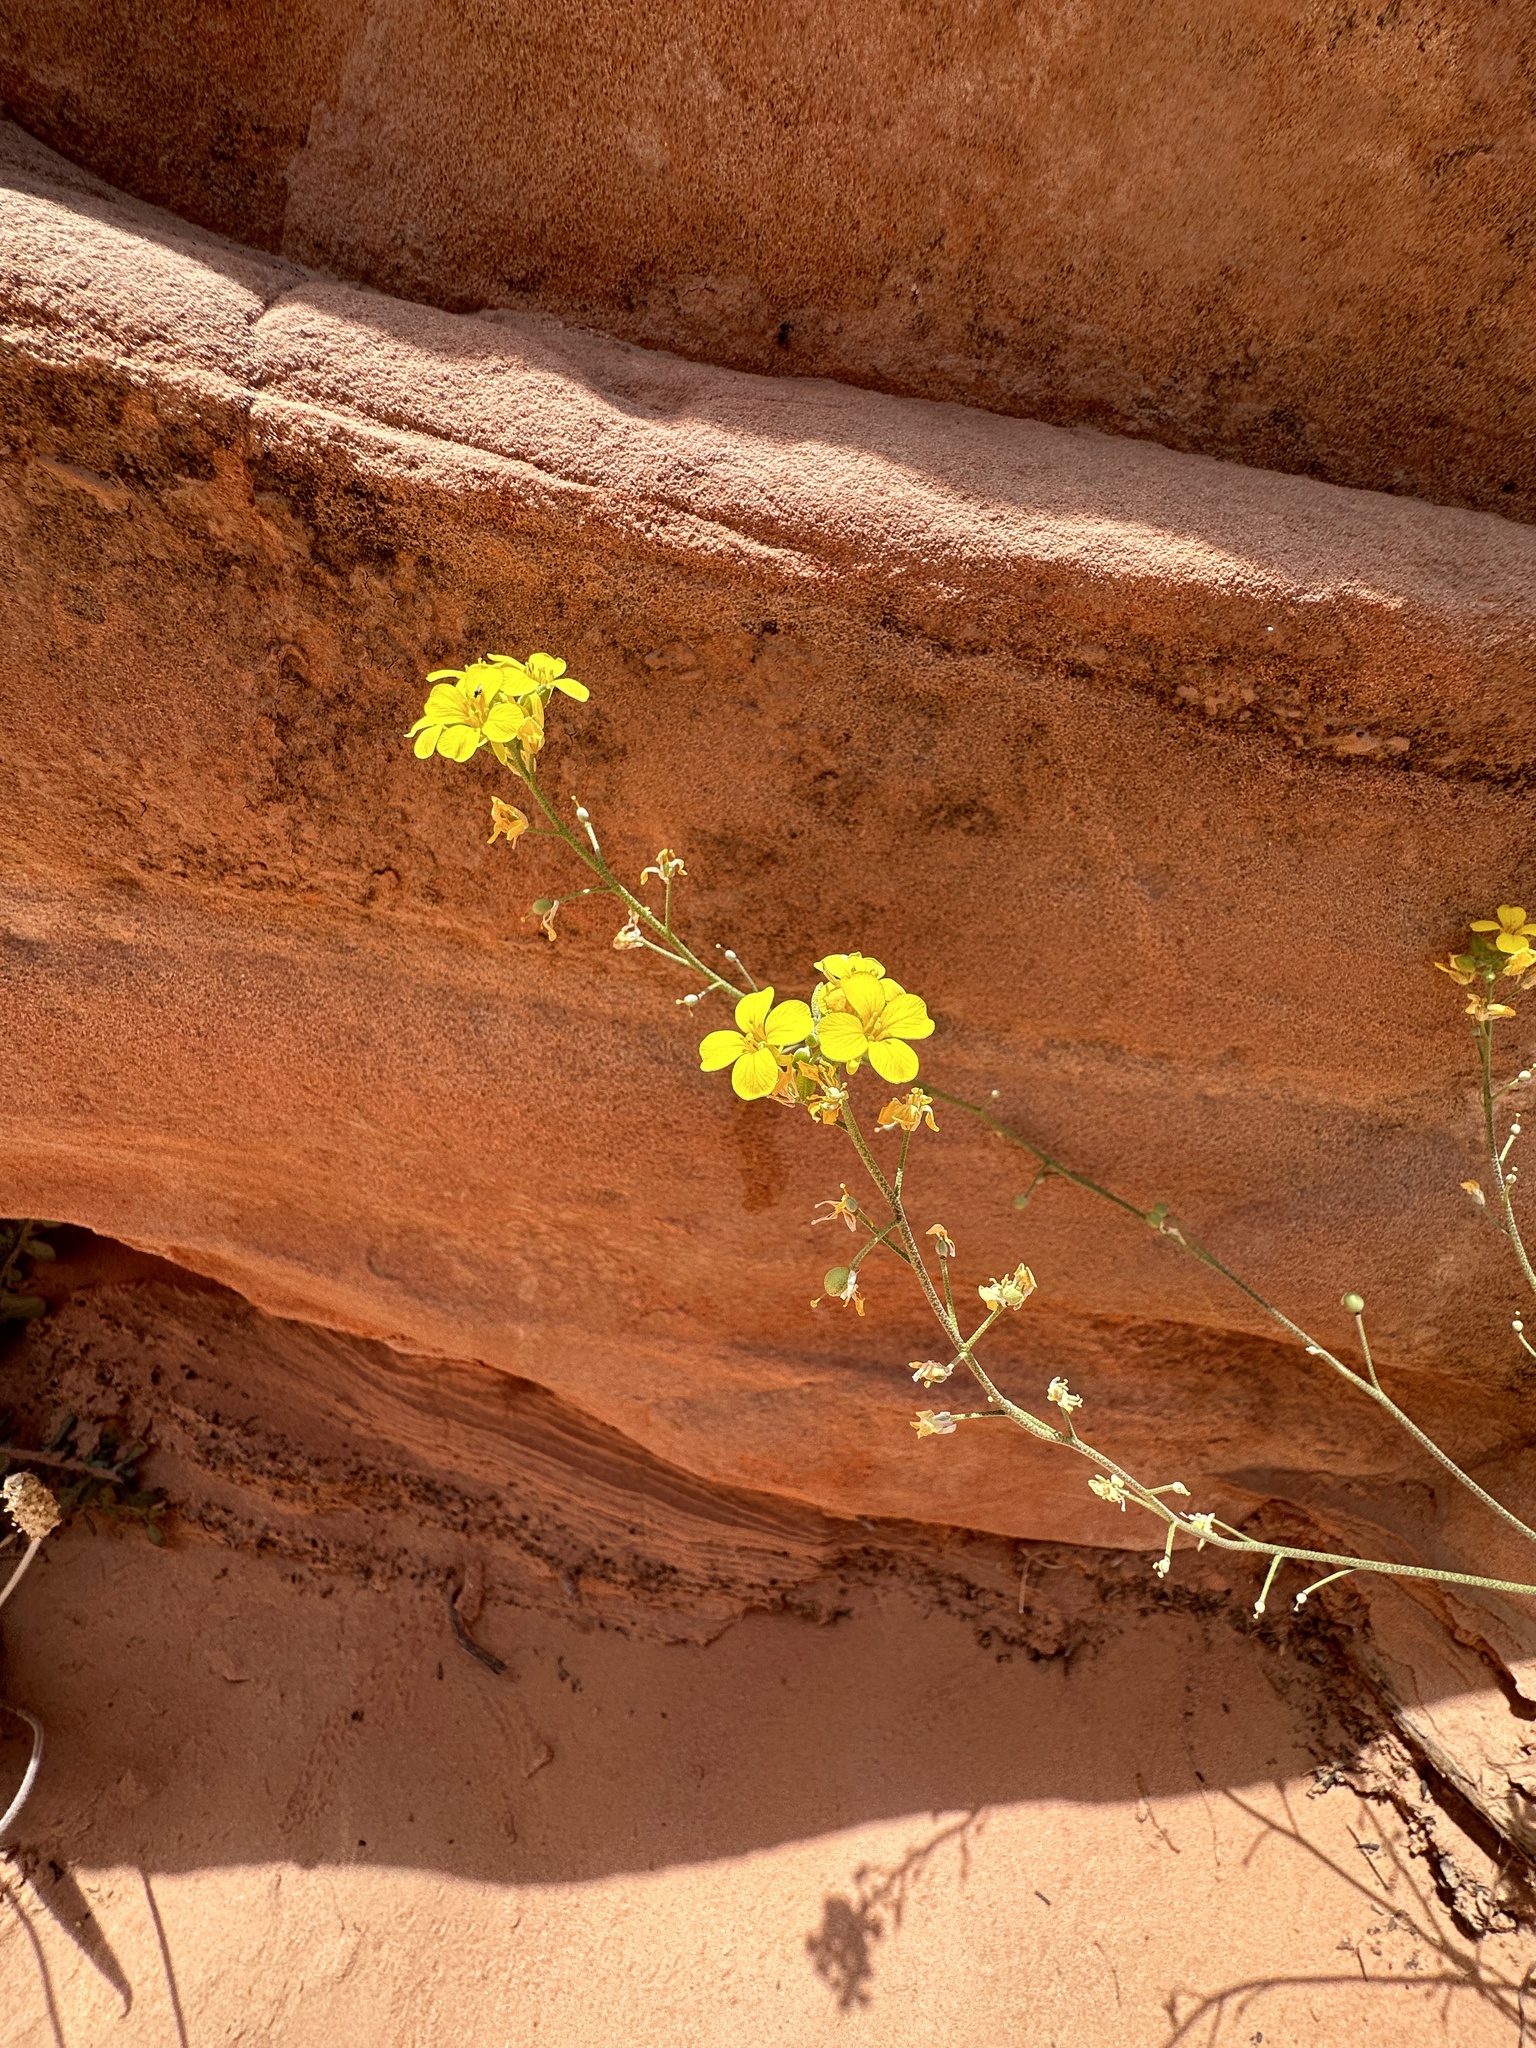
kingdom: Plantae
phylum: Tracheophyta
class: Magnoliopsida
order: Brassicales
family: Brassicaceae
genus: Physaria
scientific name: Physaria tenella
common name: Moapa bladderpod
